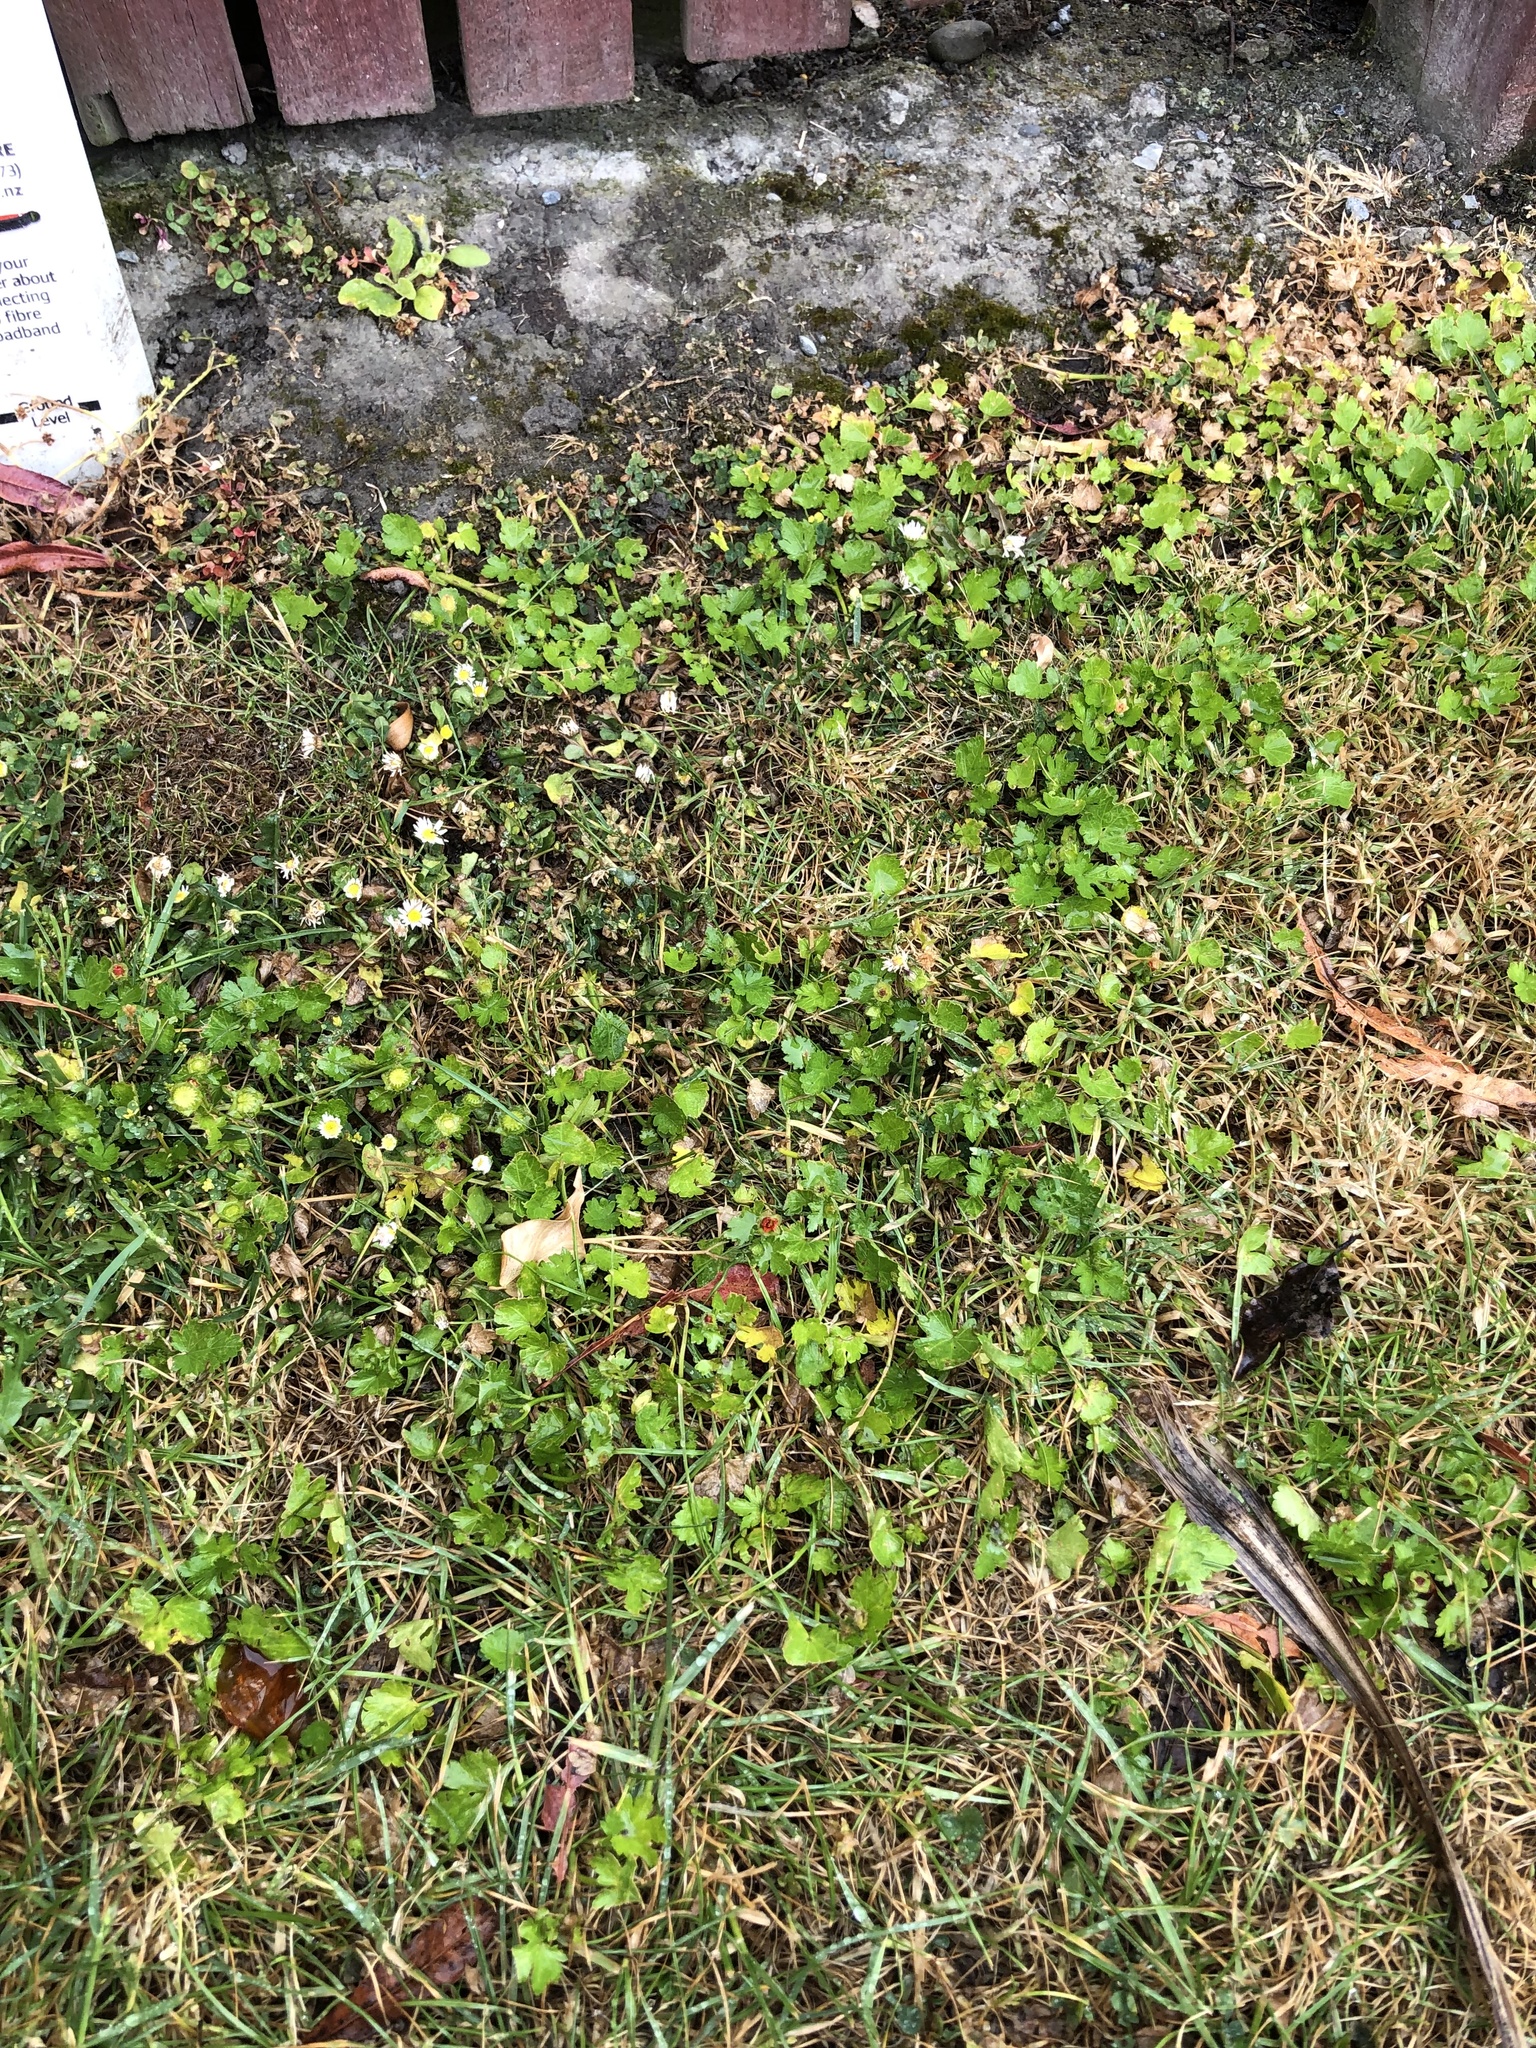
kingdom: Plantae
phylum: Tracheophyta
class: Magnoliopsida
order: Malvales
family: Malvaceae
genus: Modiola
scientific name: Modiola caroliniana
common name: Carolina bristlemallow
